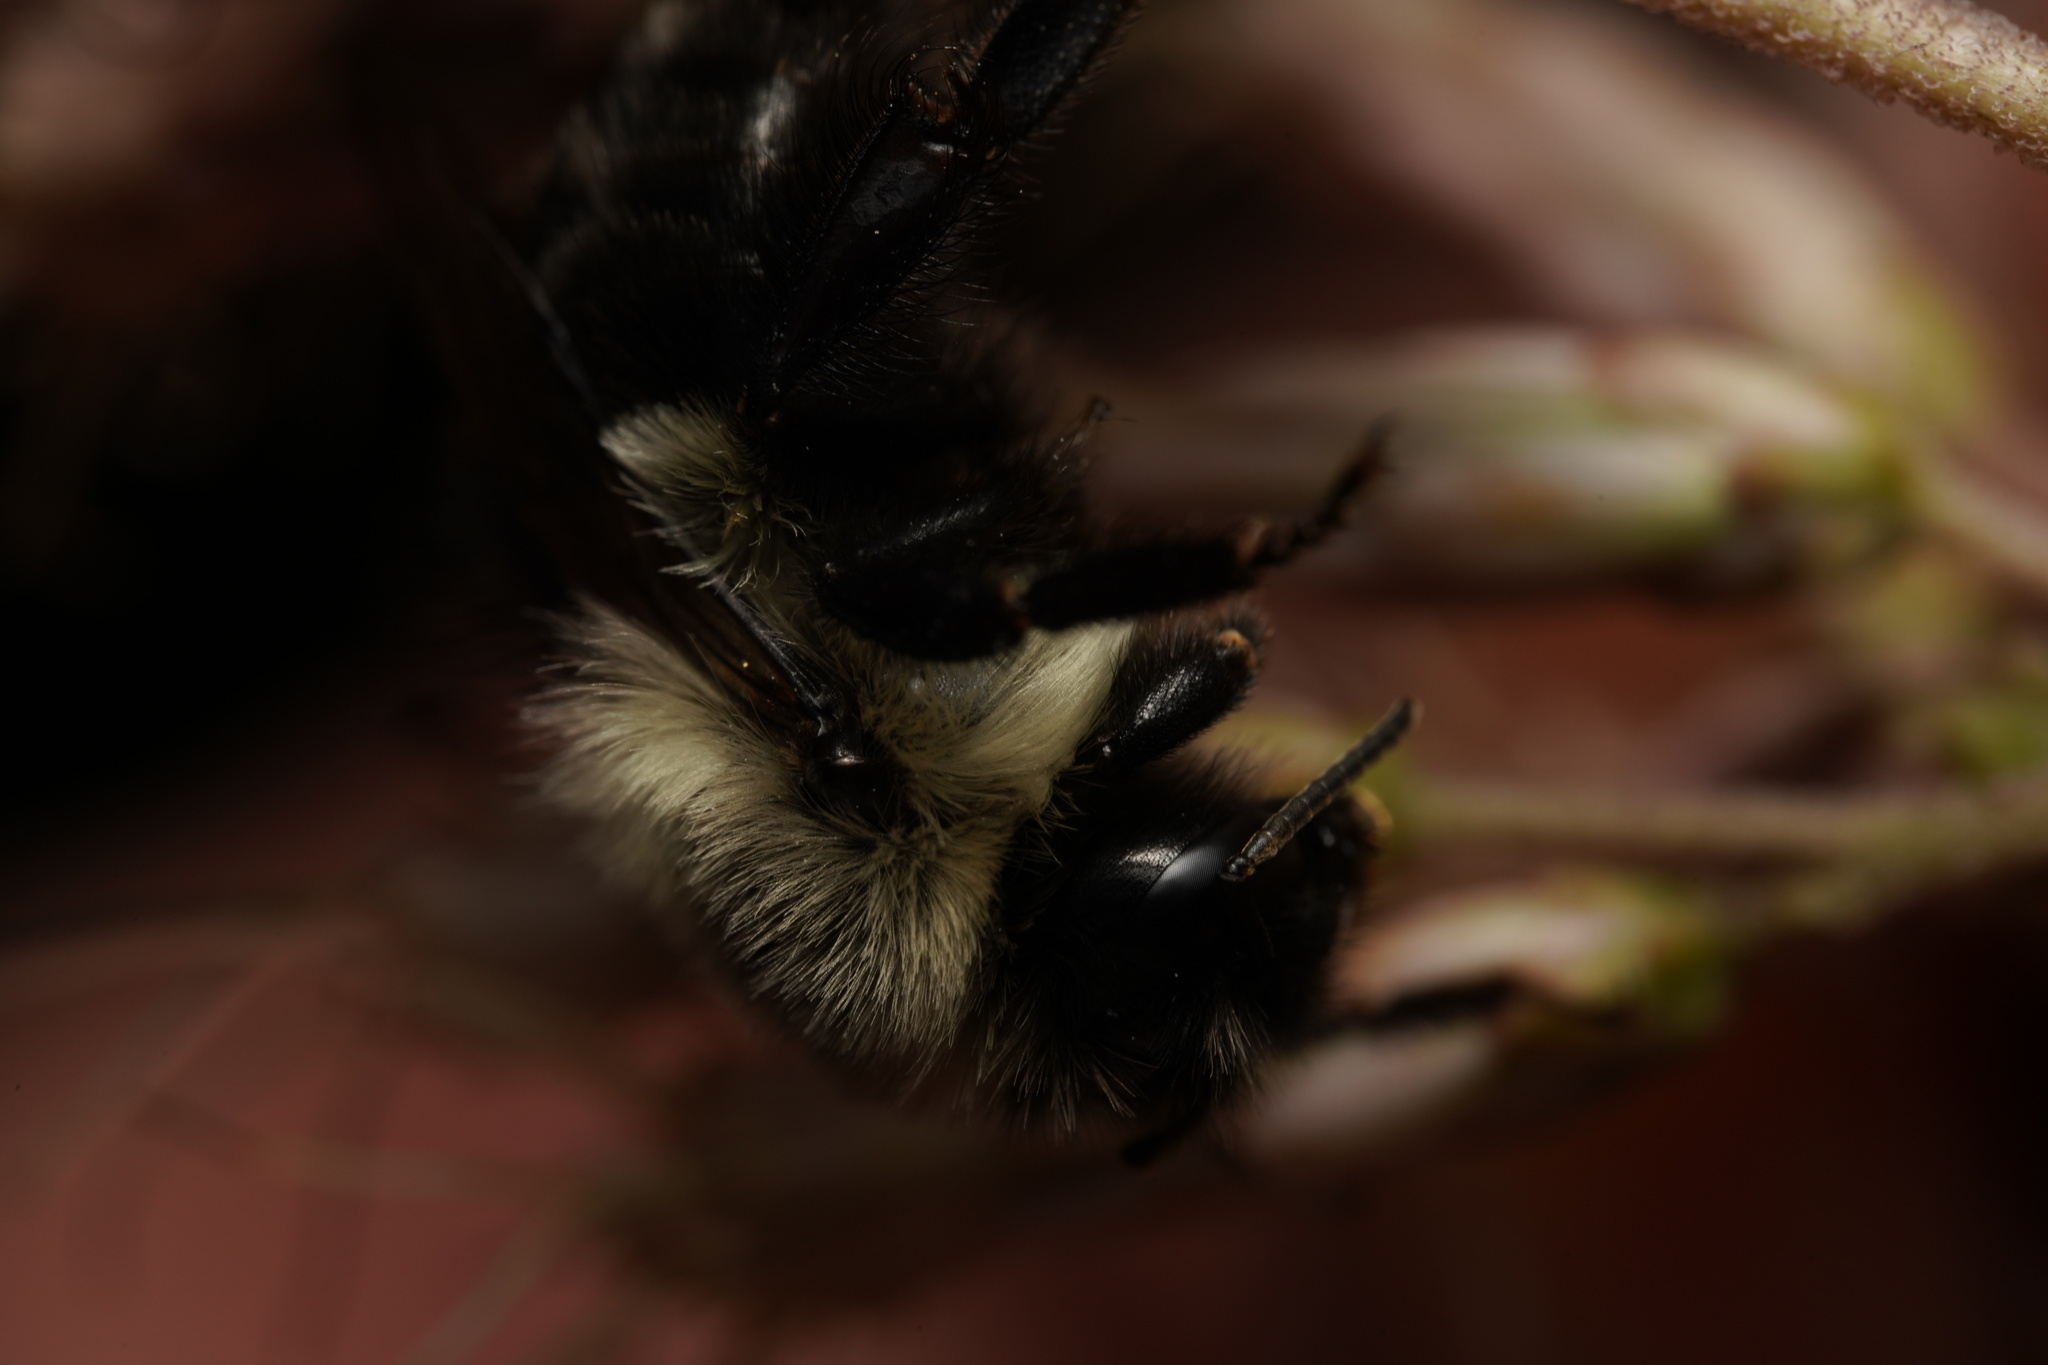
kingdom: Animalia
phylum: Arthropoda
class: Insecta
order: Hymenoptera
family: Apidae
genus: Bombus
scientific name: Bombus impatiens
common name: Common eastern bumble bee
